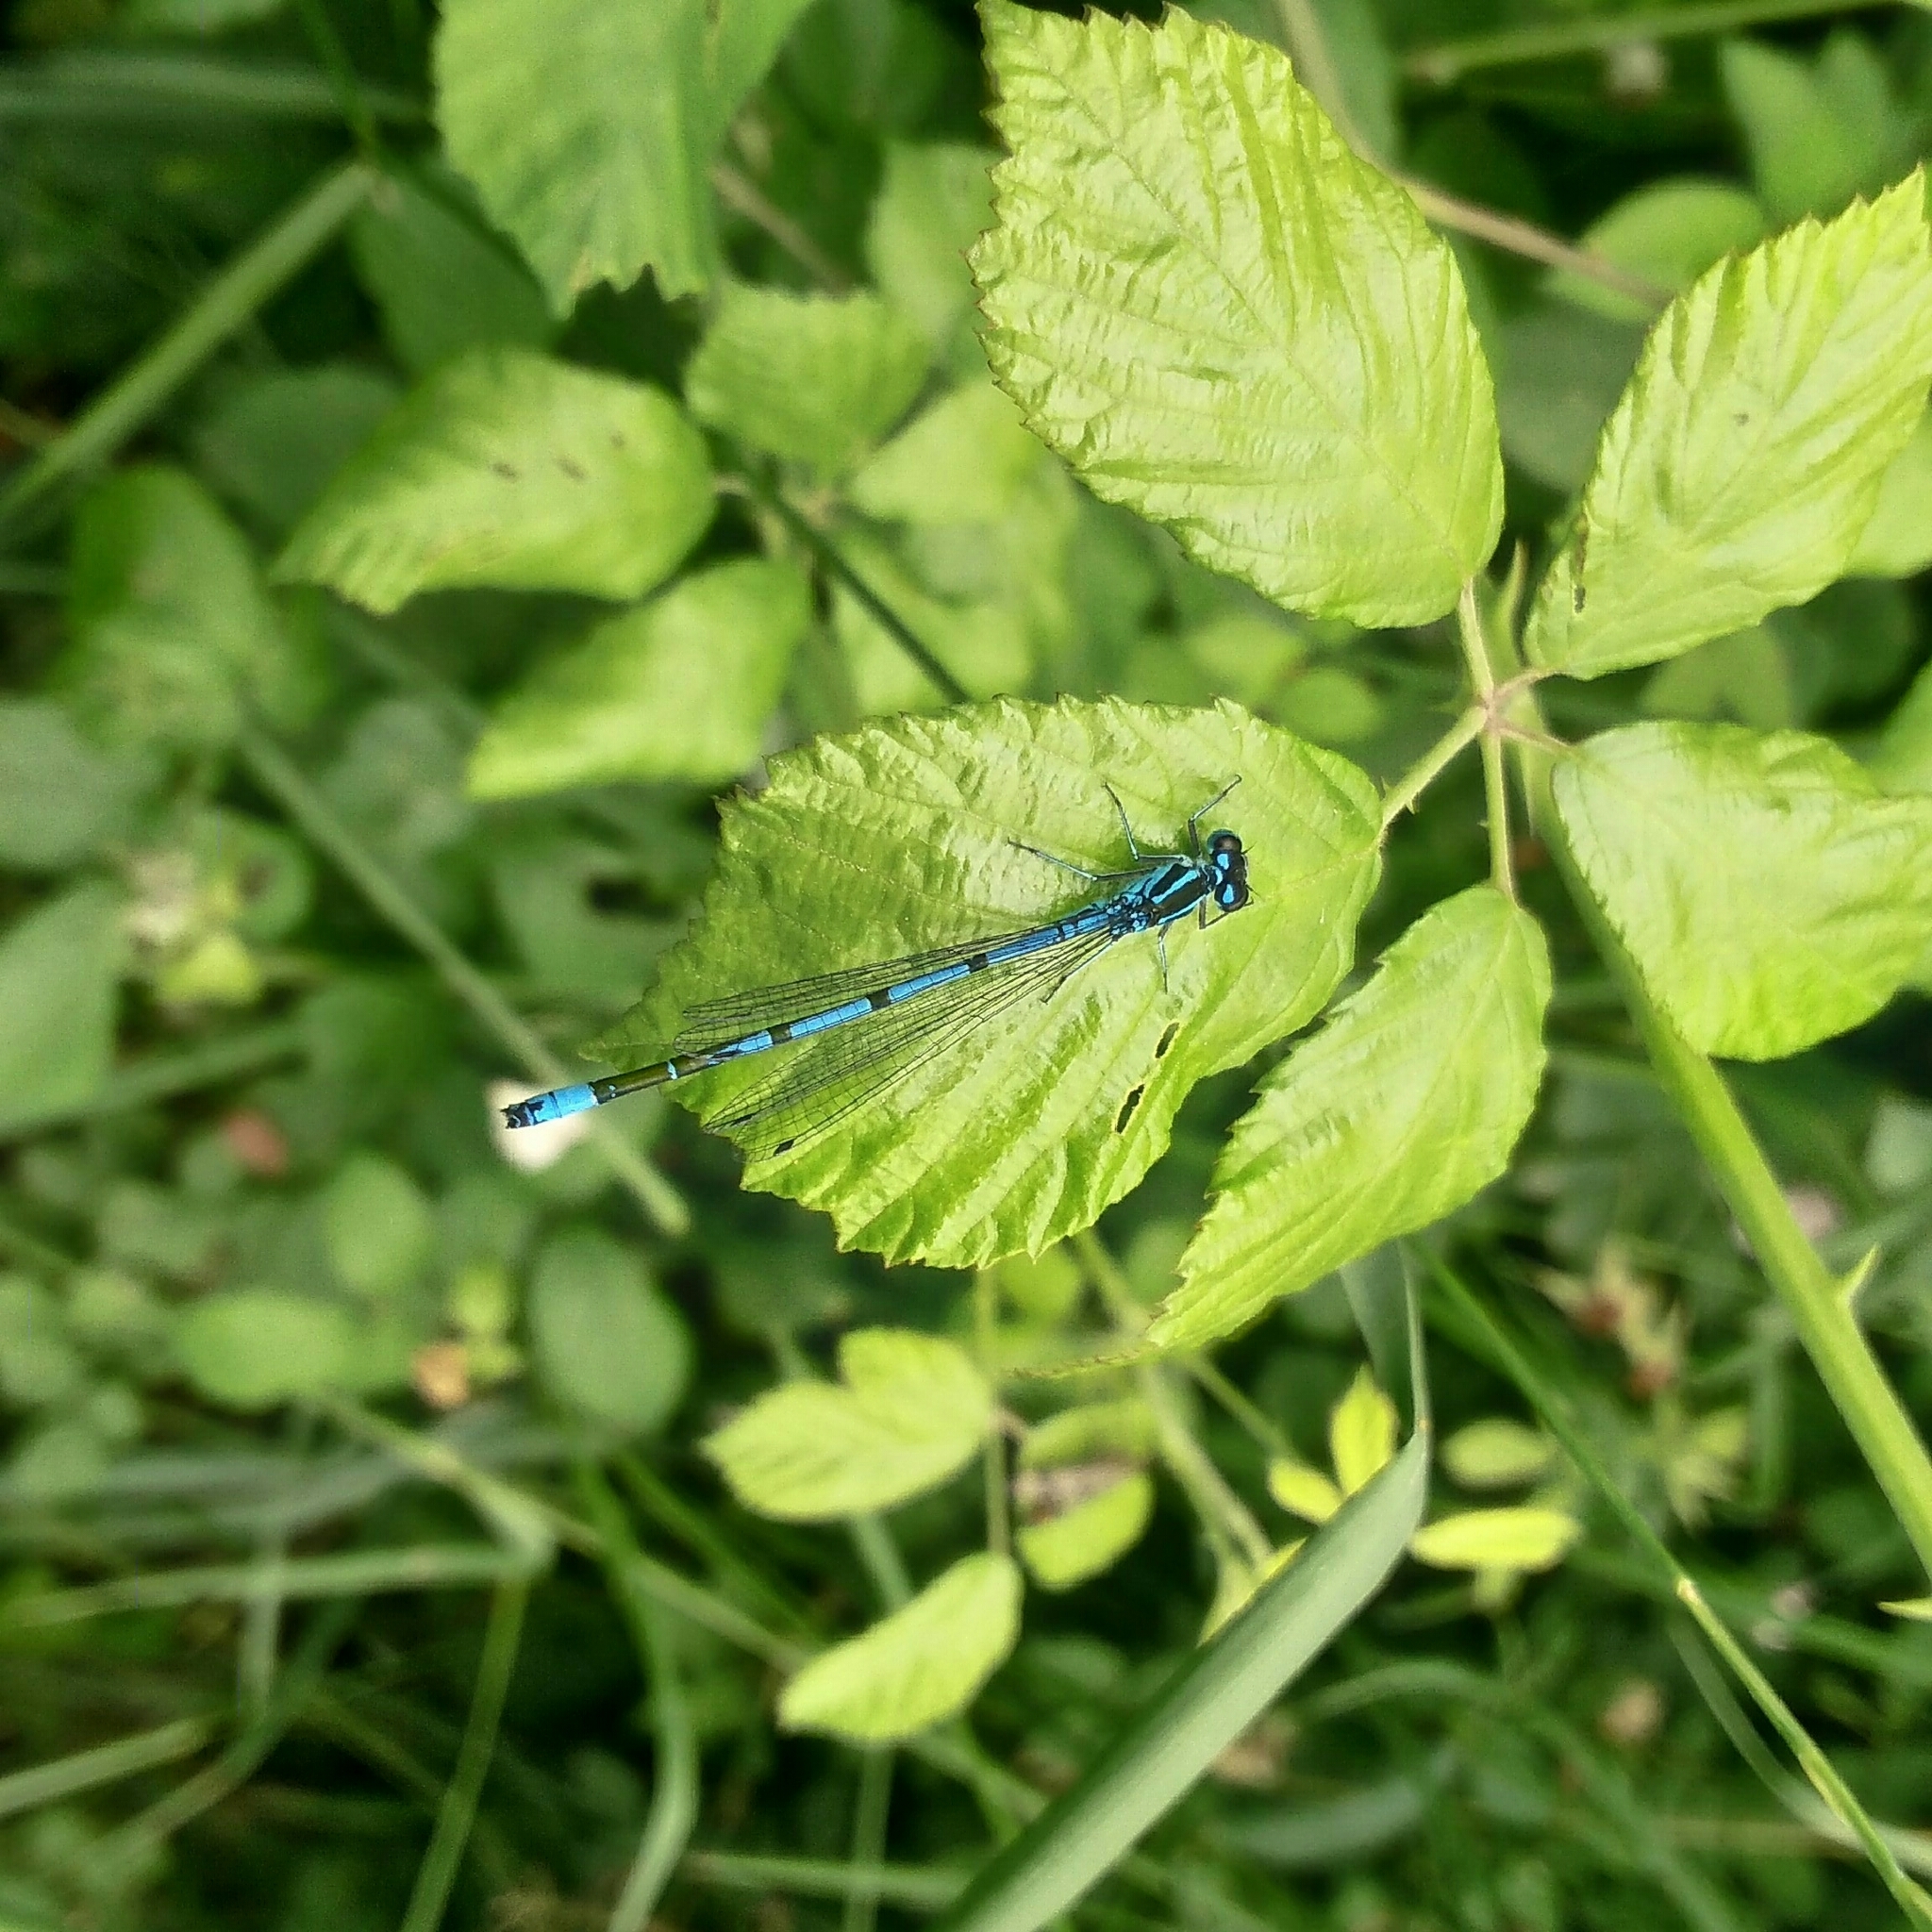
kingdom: Animalia
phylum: Arthropoda
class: Insecta
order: Odonata
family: Coenagrionidae
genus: Coenagrion
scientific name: Coenagrion puella
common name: Azure damselfly
